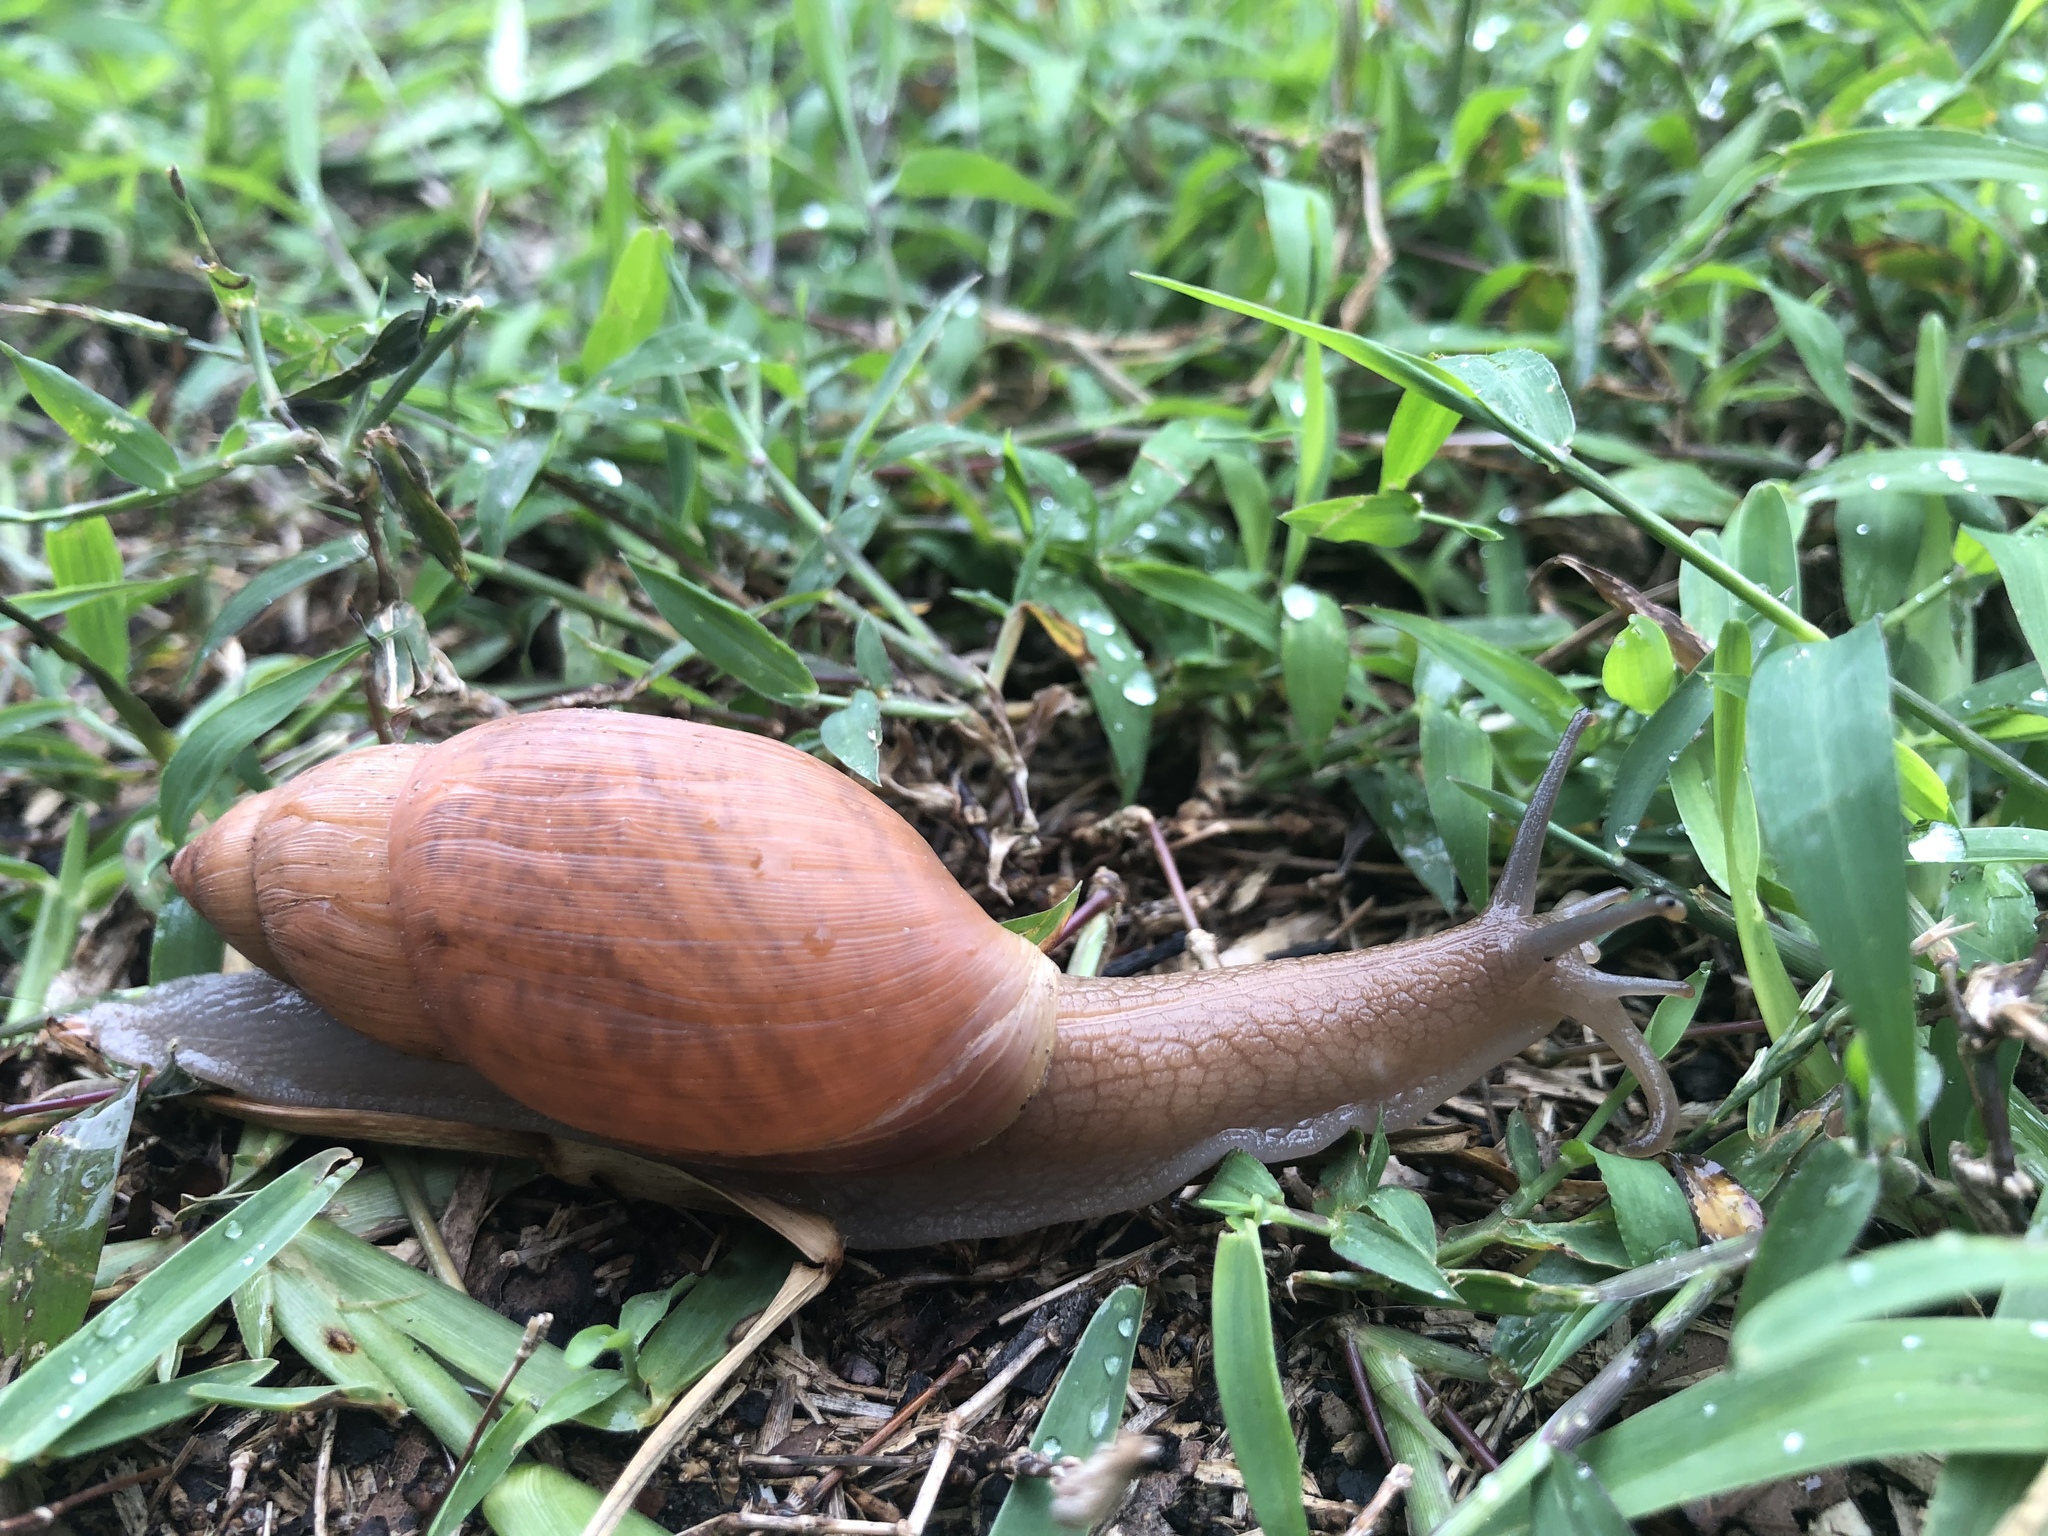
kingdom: Animalia
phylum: Mollusca
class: Gastropoda
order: Stylommatophora
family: Spiraxidae
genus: Euglandina
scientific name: Euglandina rosea
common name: Rosy wolfsnail
